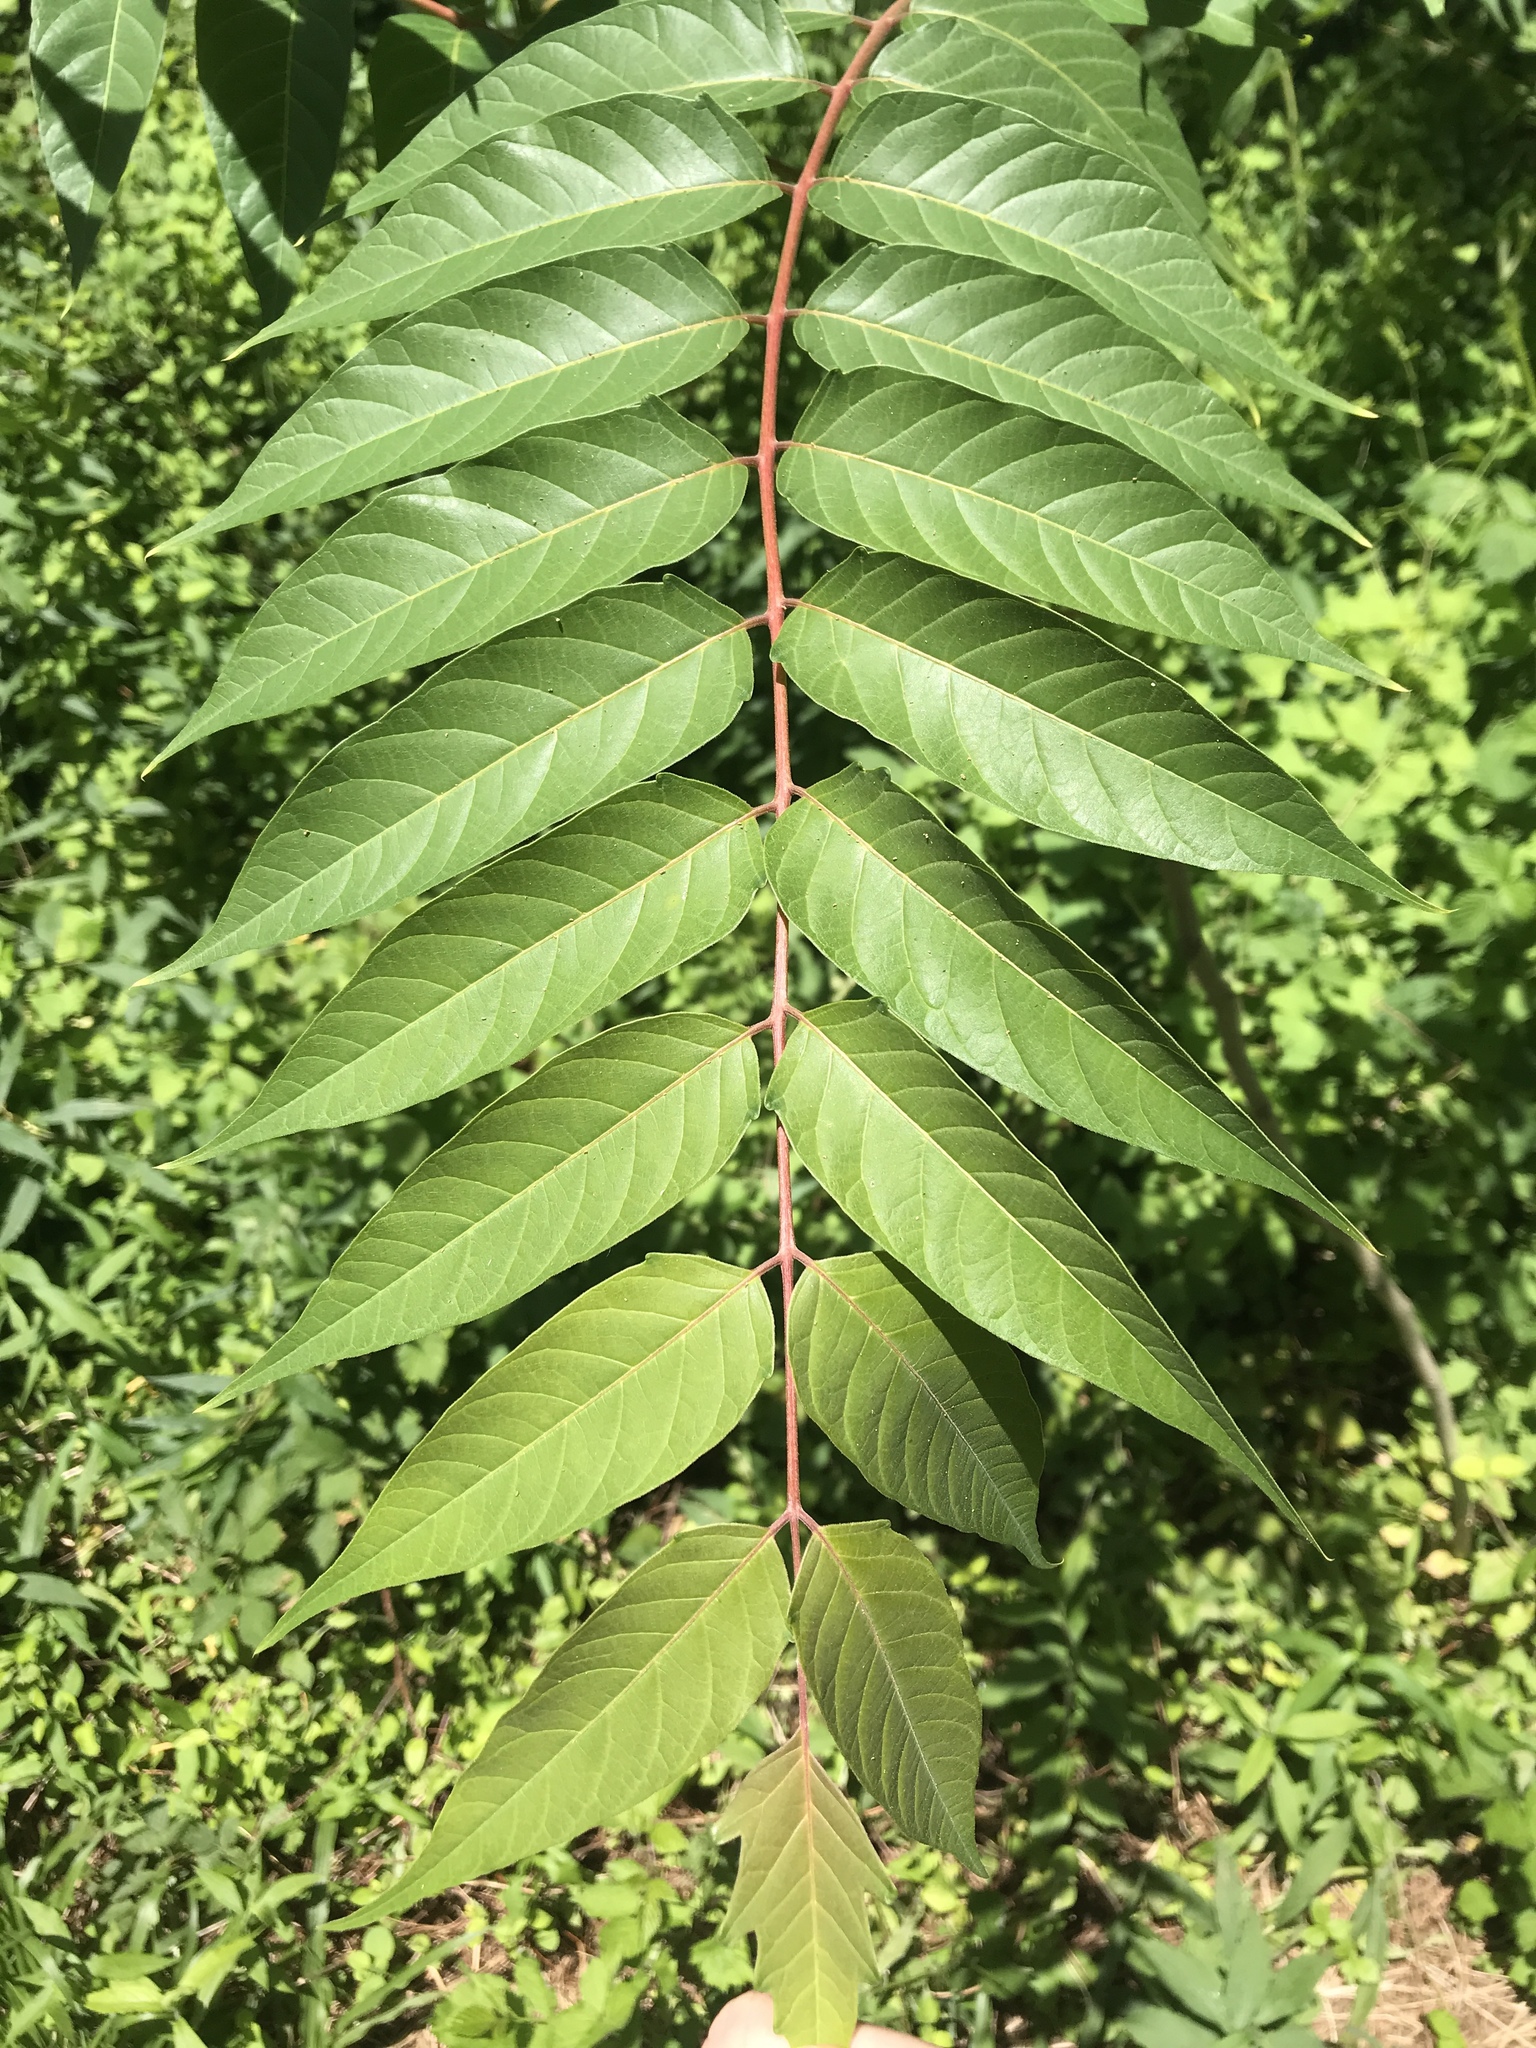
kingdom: Plantae
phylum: Tracheophyta
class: Magnoliopsida
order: Sapindales
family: Simaroubaceae
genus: Ailanthus
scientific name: Ailanthus altissima
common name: Tree-of-heaven
